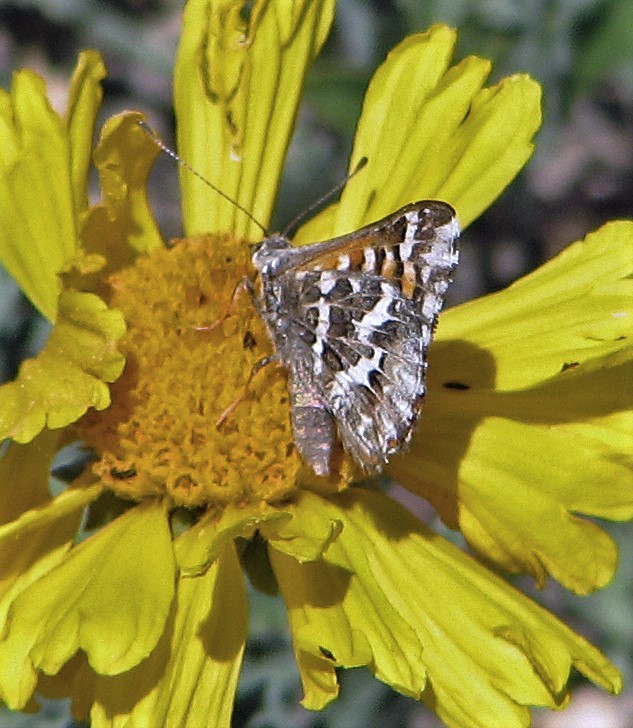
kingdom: Animalia
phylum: Arthropoda
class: Insecta
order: Lepidoptera
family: Lycaenidae
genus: Aricoris
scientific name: Aricoris chilensis
